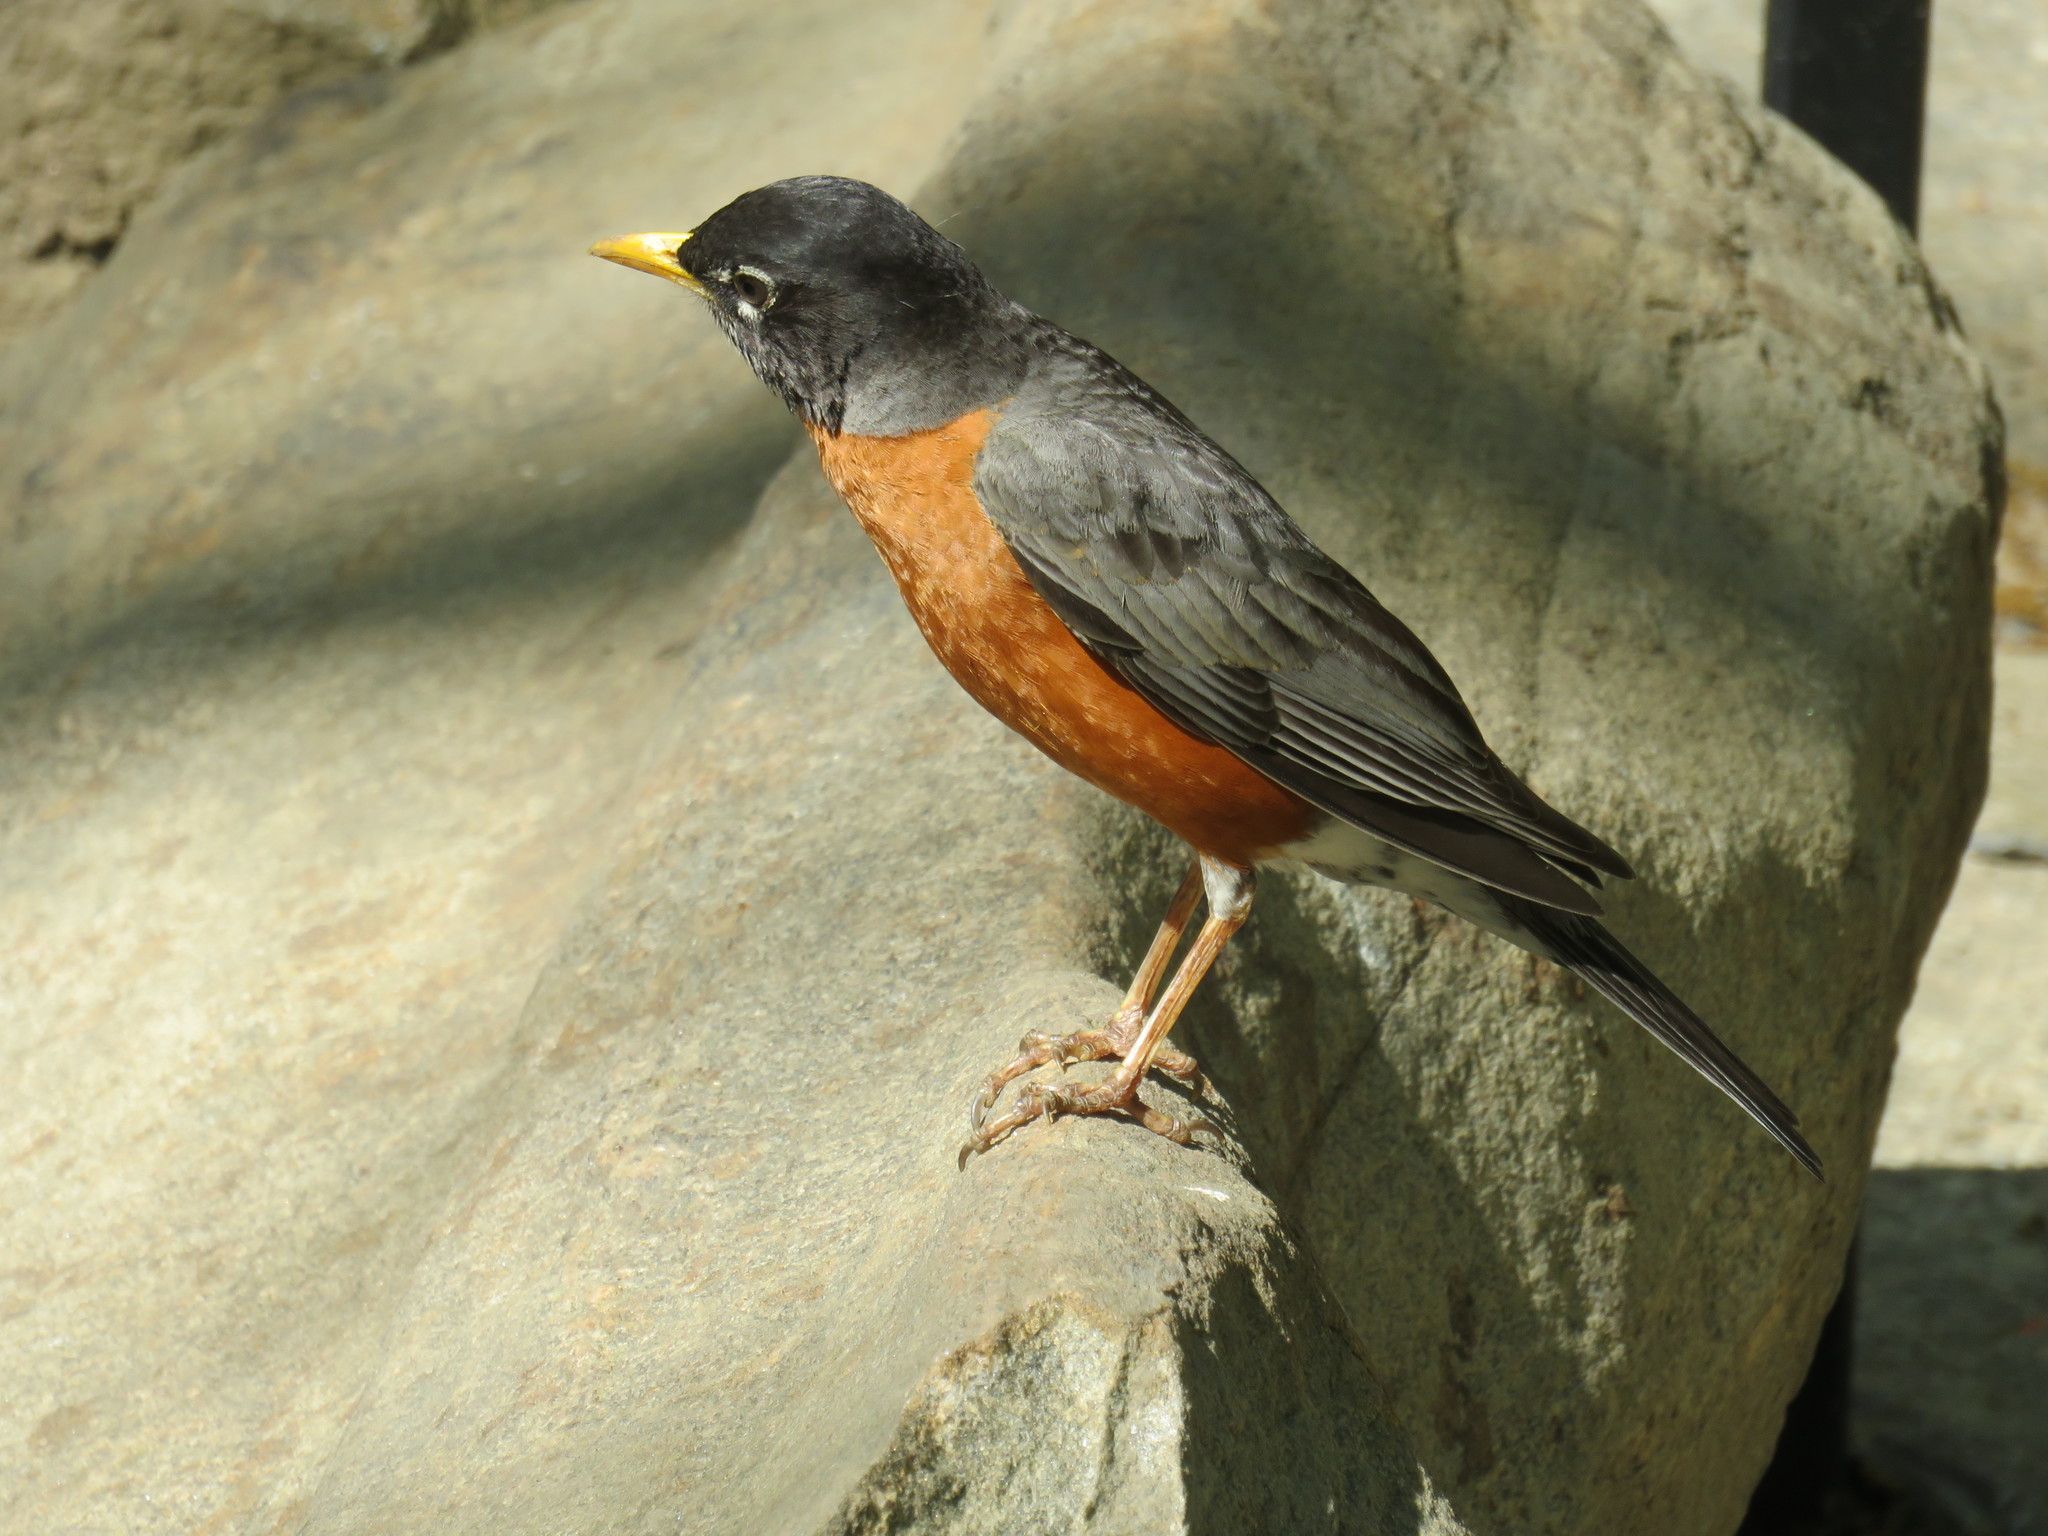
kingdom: Animalia
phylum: Chordata
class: Aves
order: Passeriformes
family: Turdidae
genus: Turdus
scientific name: Turdus migratorius
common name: American robin
